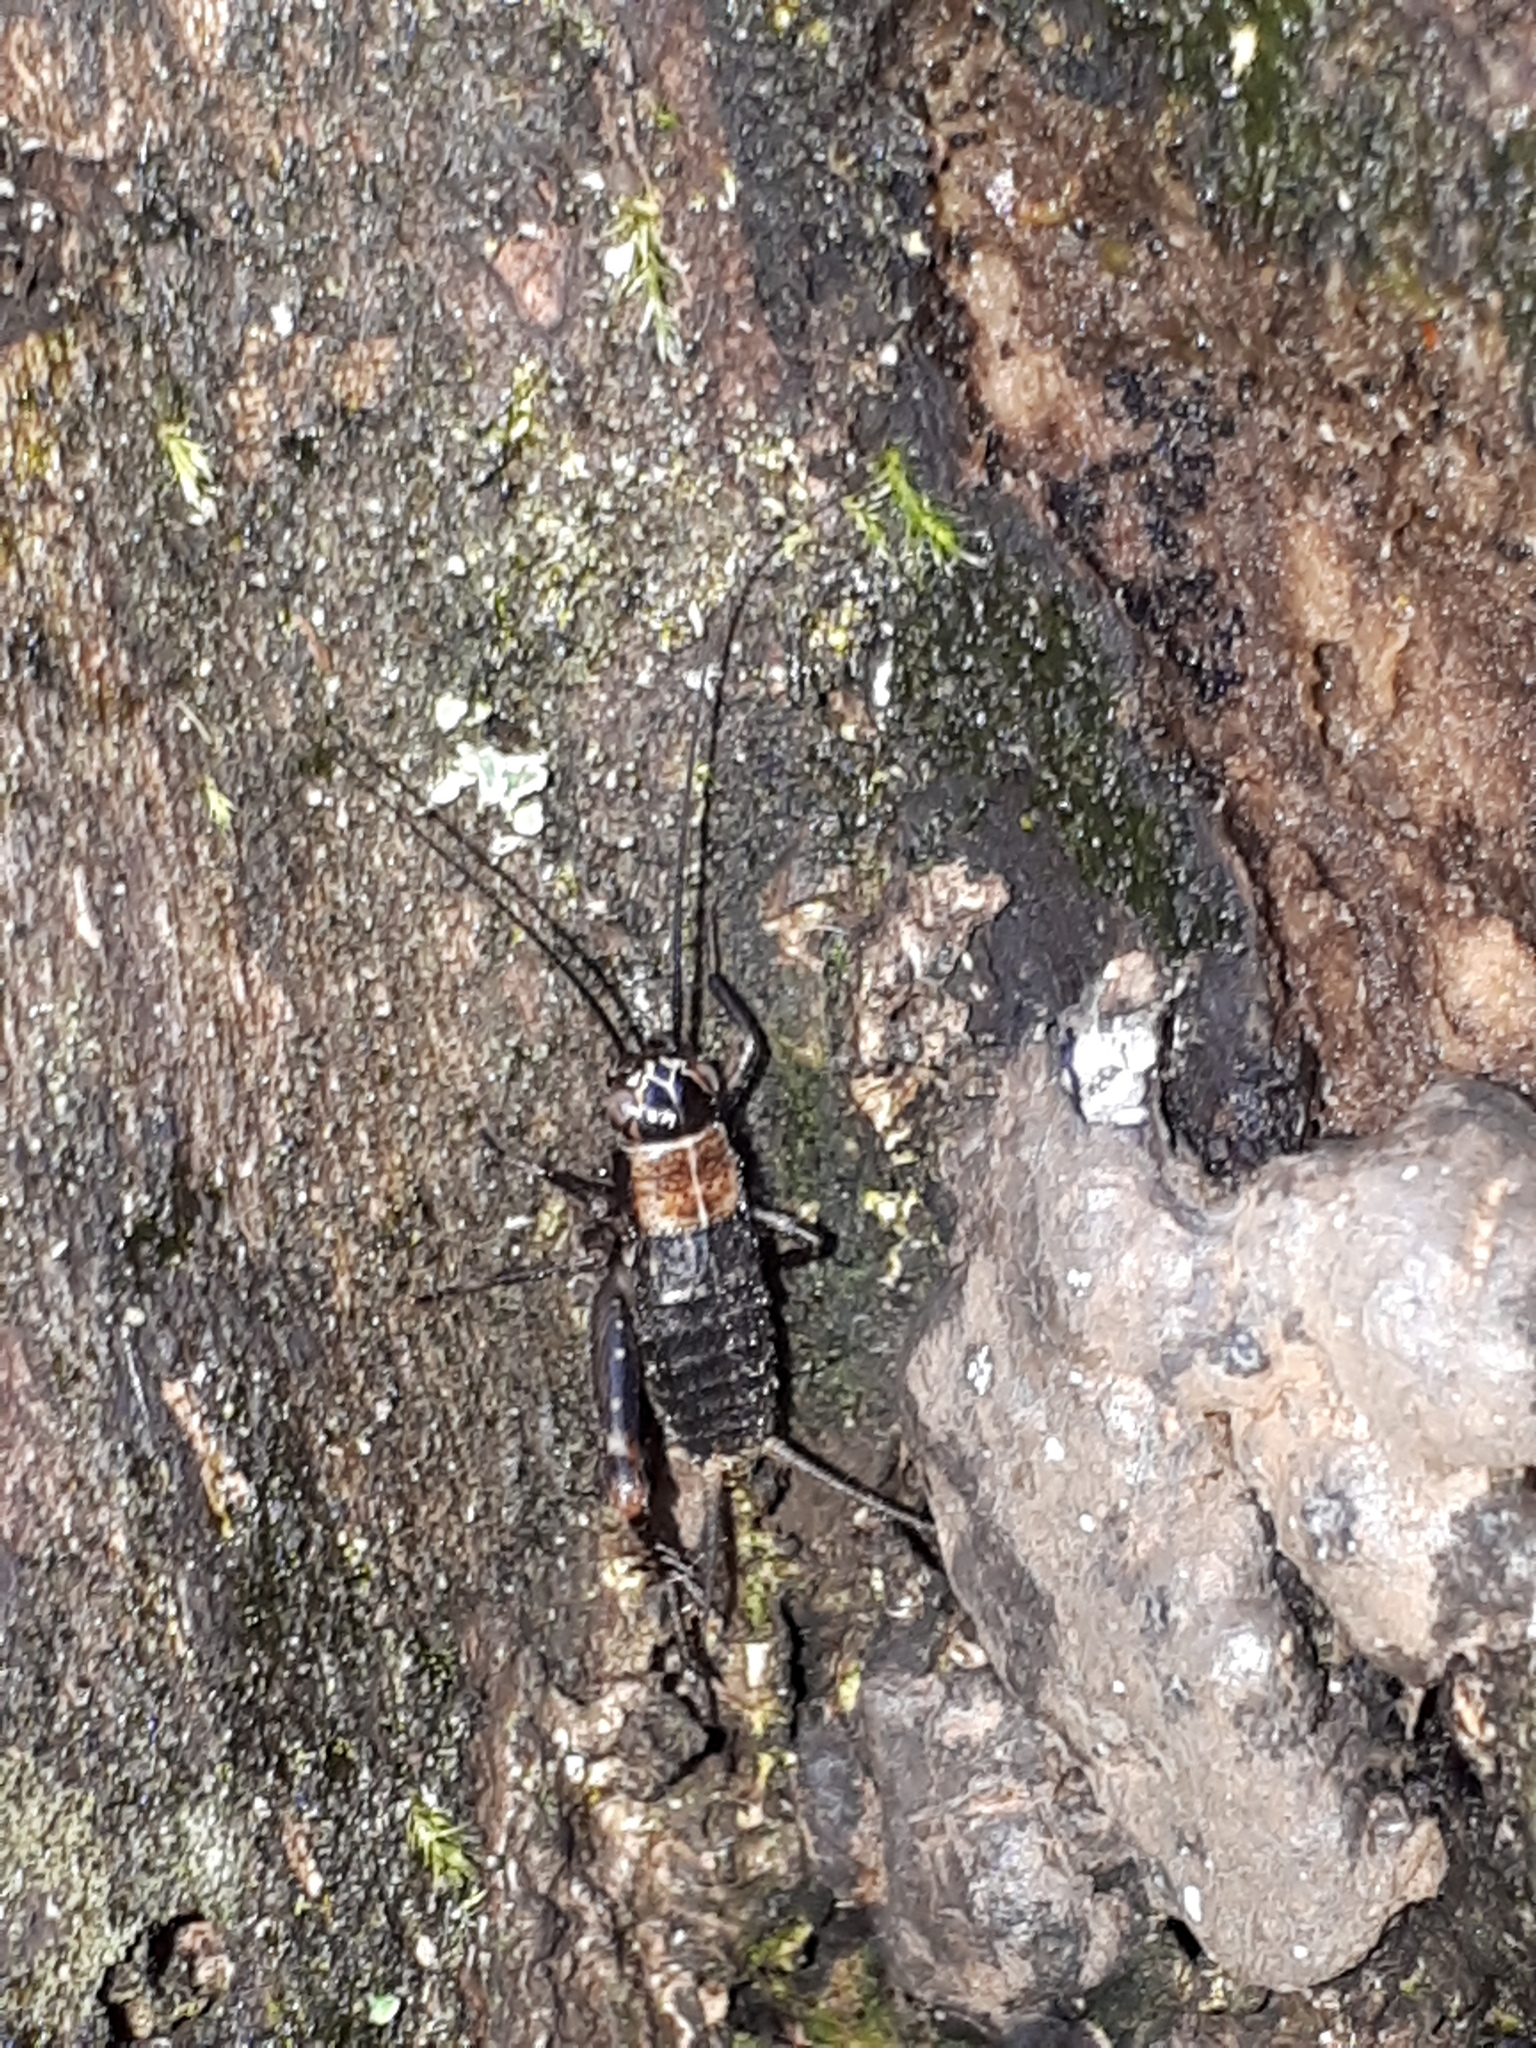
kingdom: Animalia
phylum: Arthropoda
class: Insecta
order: Orthoptera
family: Trigonidiidae
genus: Nemobius
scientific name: Nemobius sylvestris
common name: Wood-cricket
